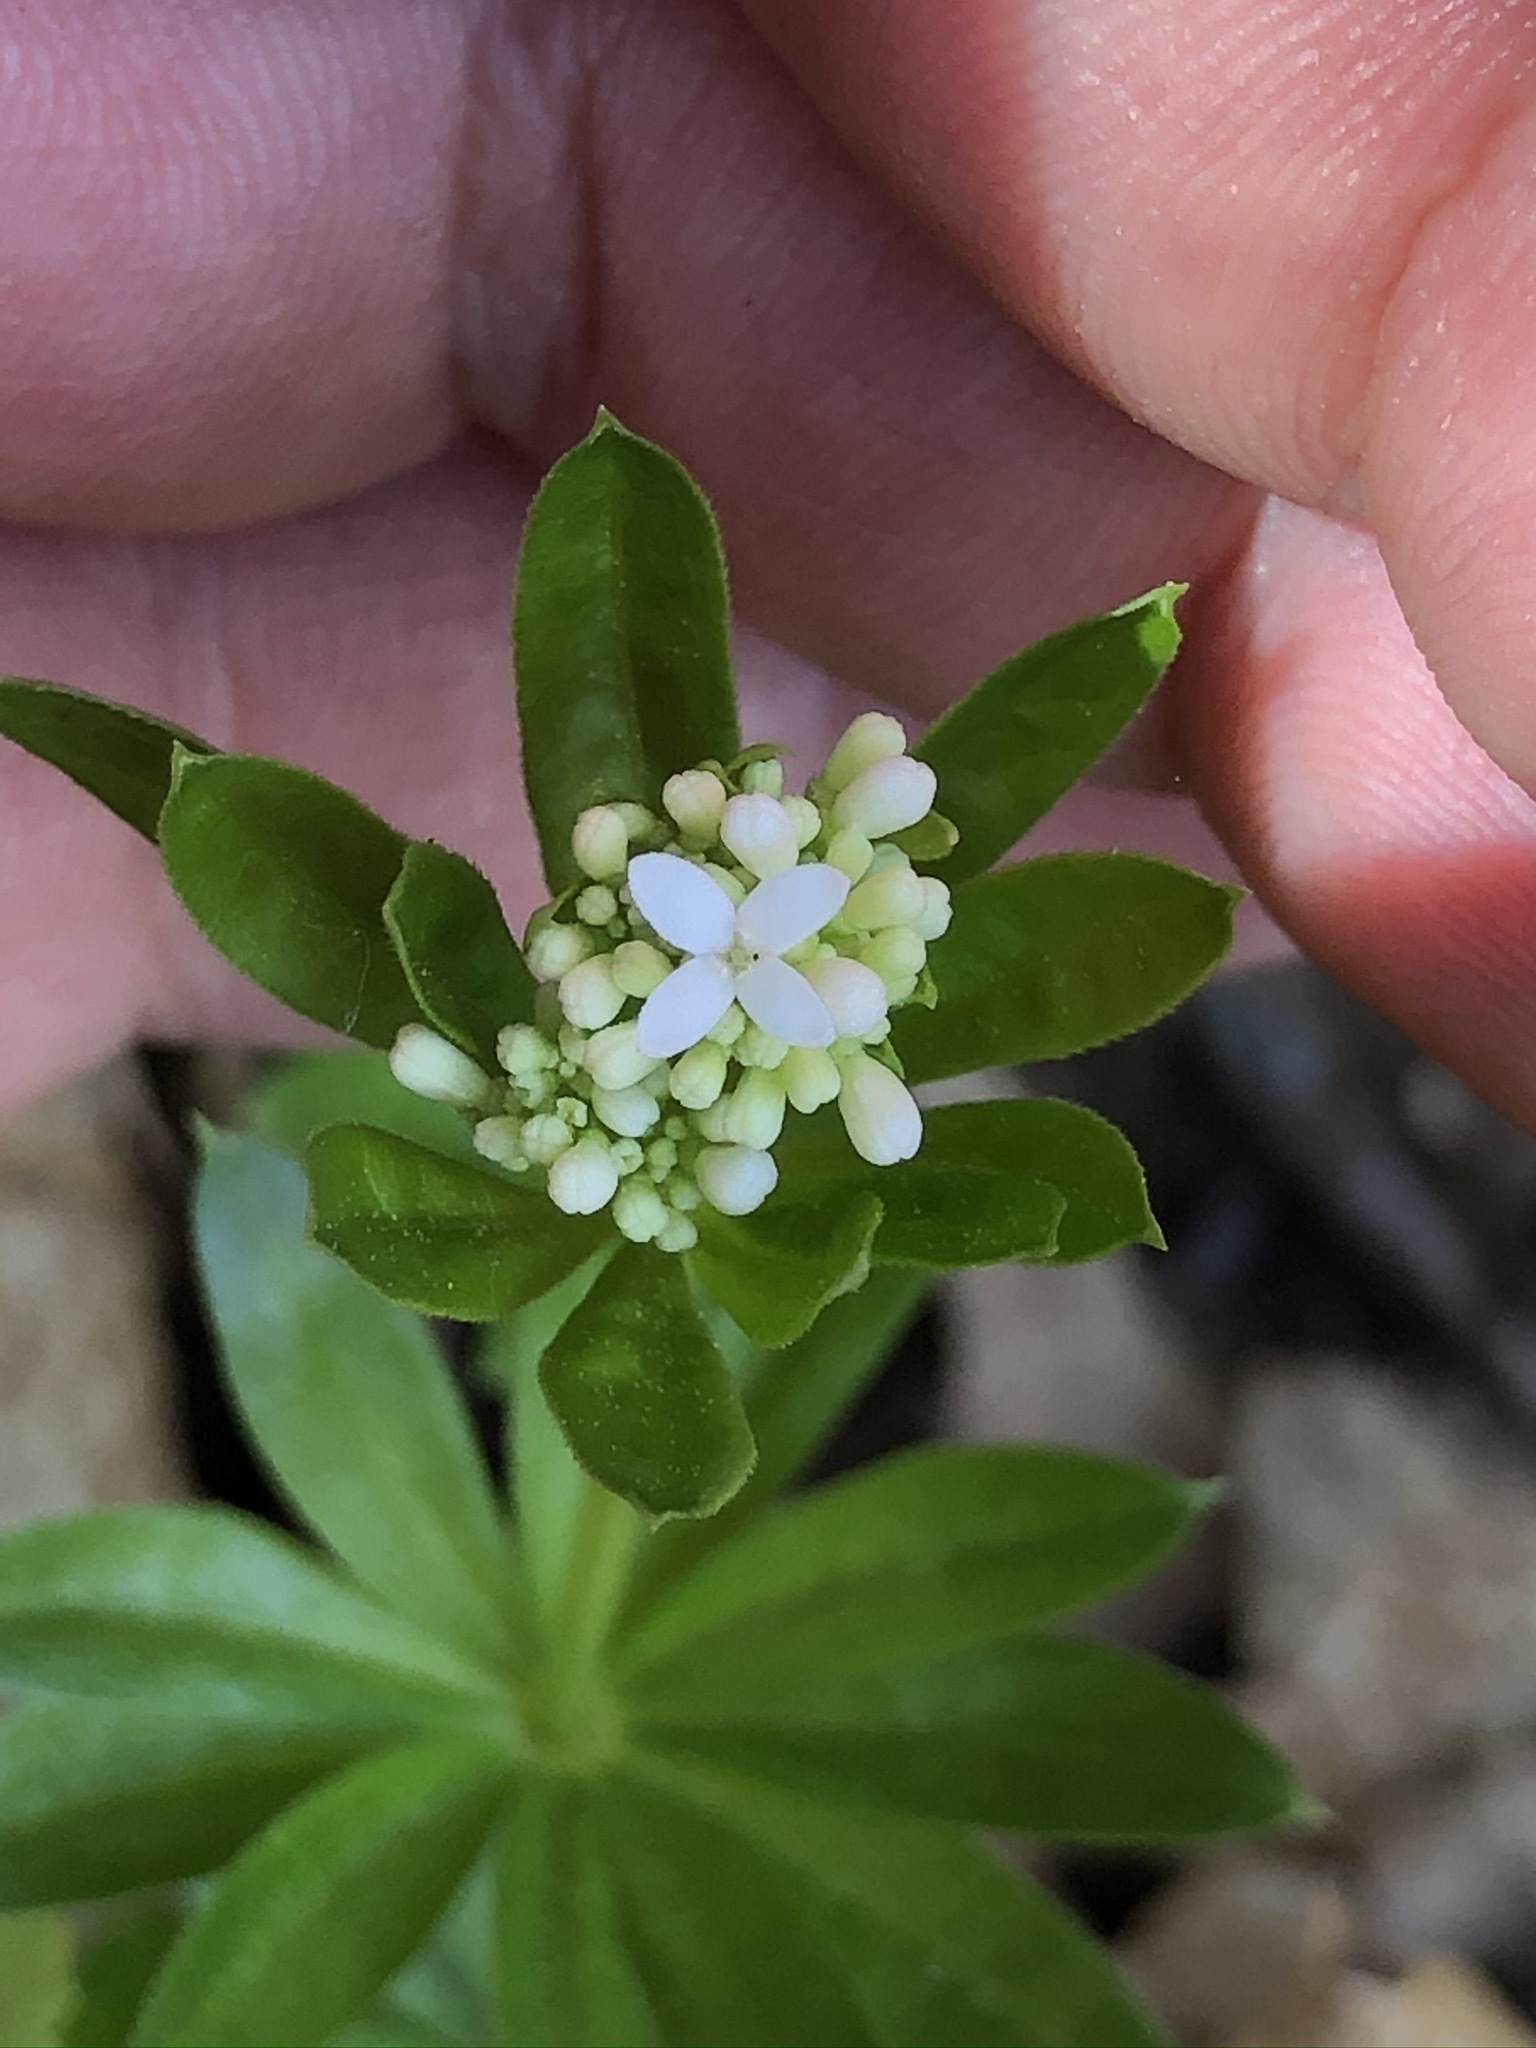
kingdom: Plantae
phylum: Tracheophyta
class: Magnoliopsida
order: Gentianales
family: Rubiaceae
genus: Galium
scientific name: Galium odoratum
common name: Sweet woodruff
